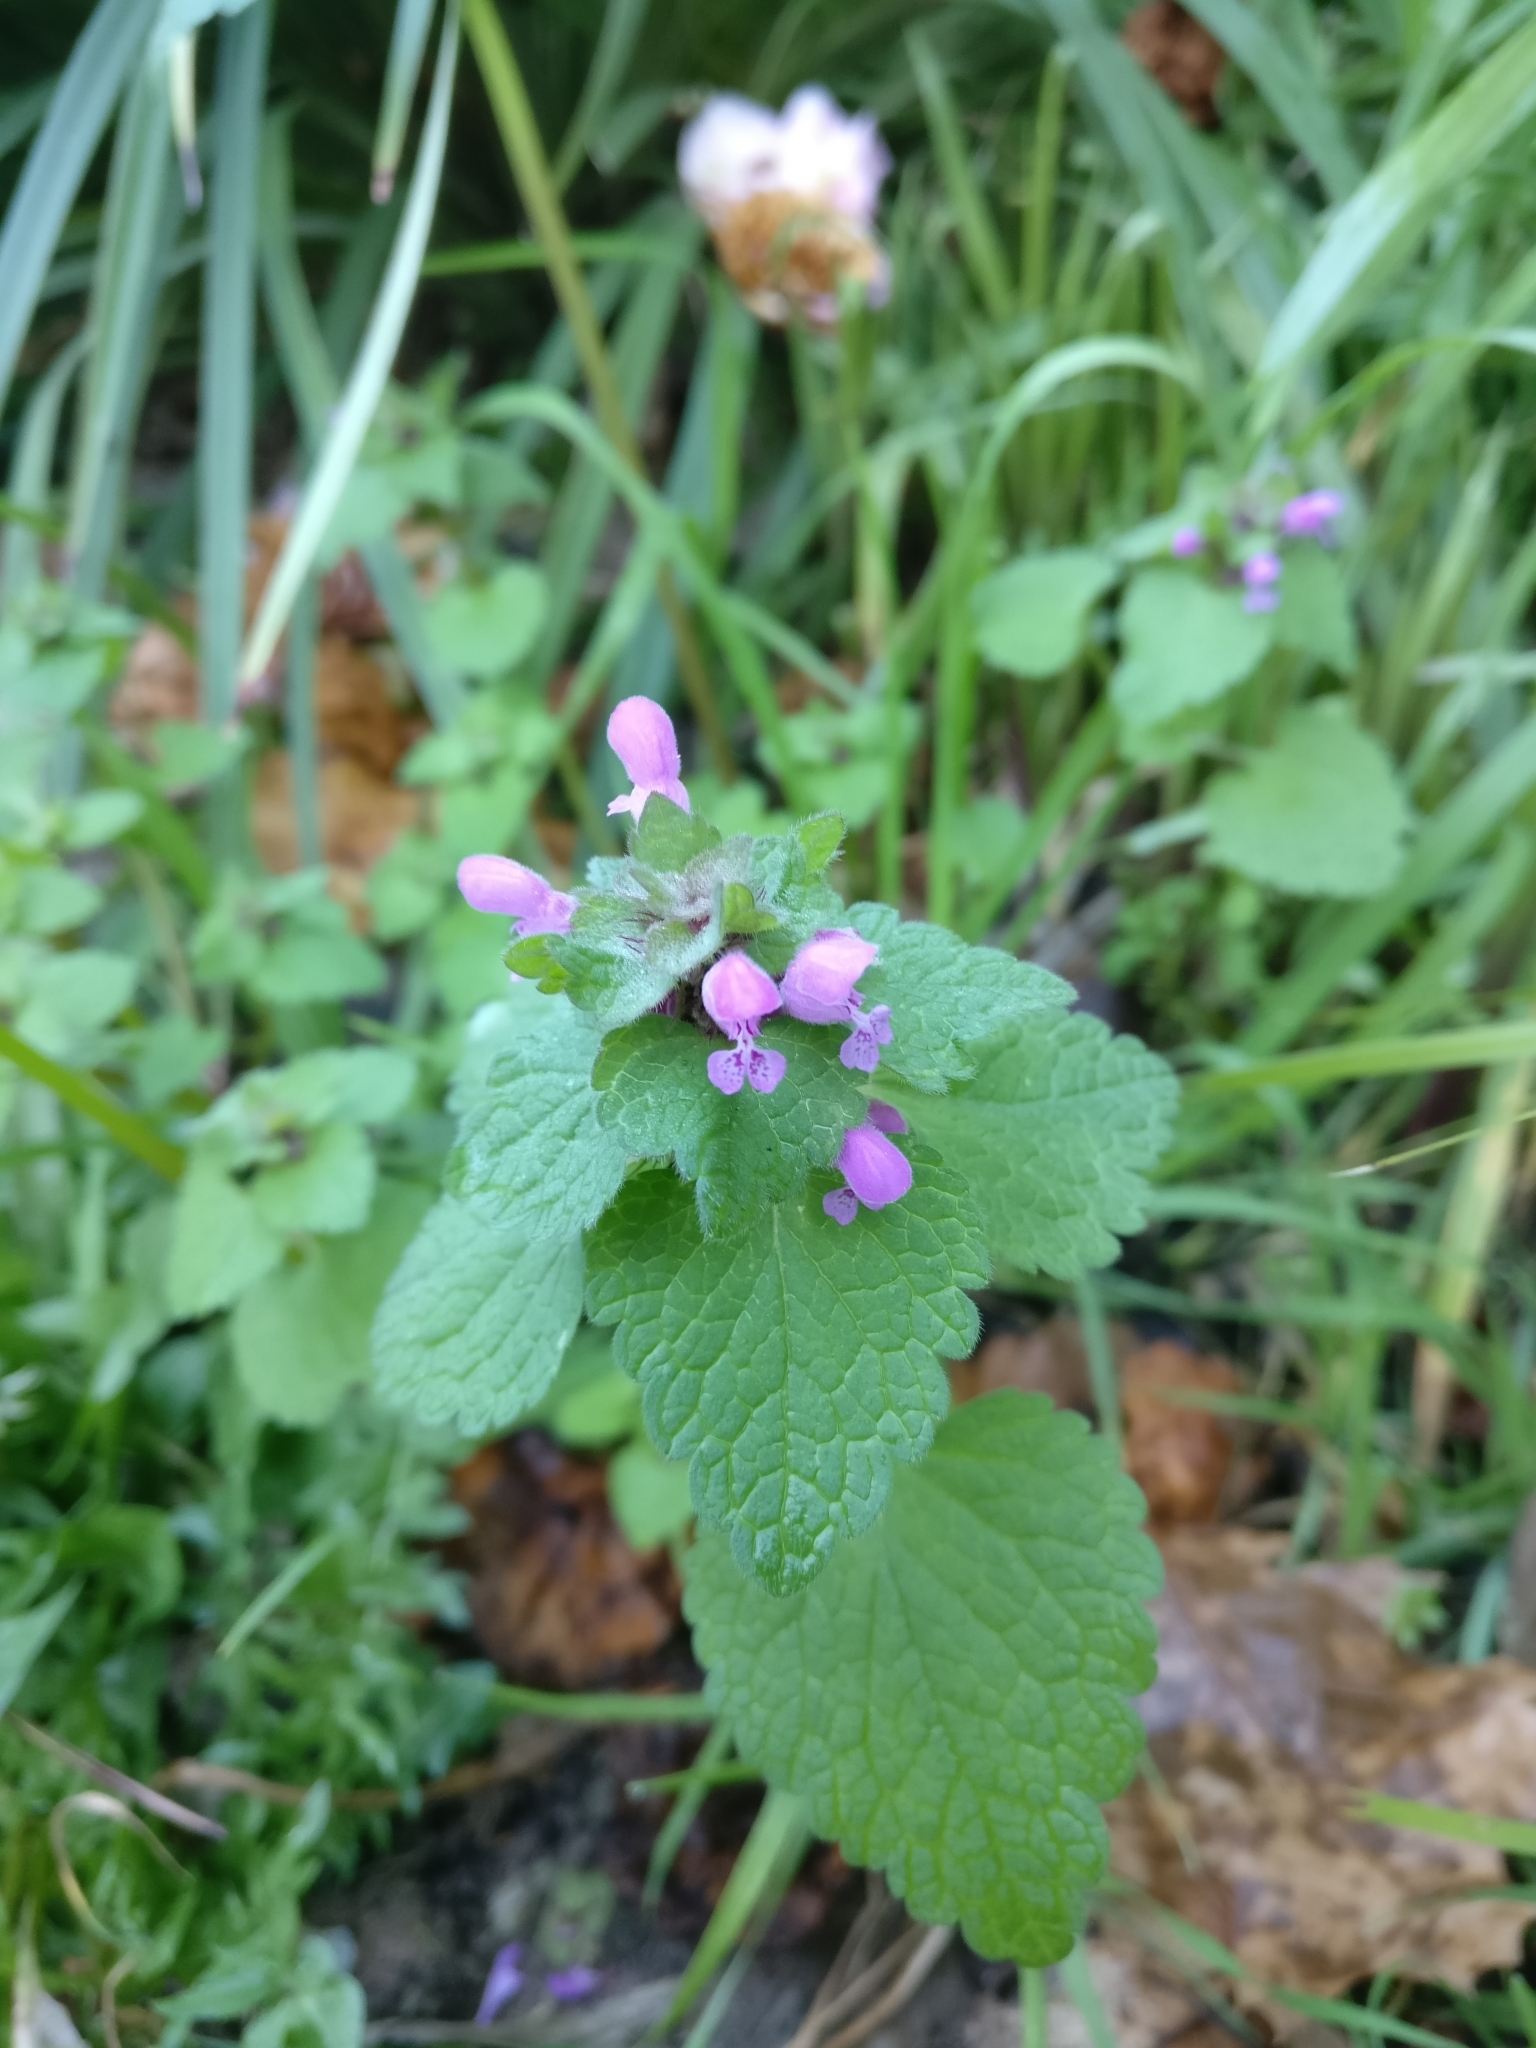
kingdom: Plantae
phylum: Tracheophyta
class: Magnoliopsida
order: Lamiales
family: Lamiaceae
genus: Lamium
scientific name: Lamium purpureum
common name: Red dead-nettle
